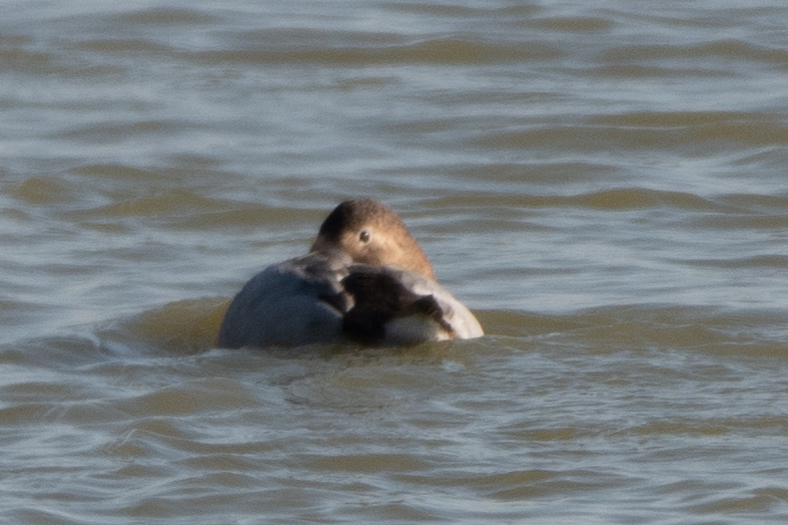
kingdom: Animalia
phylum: Chordata
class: Aves
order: Anseriformes
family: Anatidae
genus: Aythya
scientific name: Aythya valisineria
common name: Canvasback
